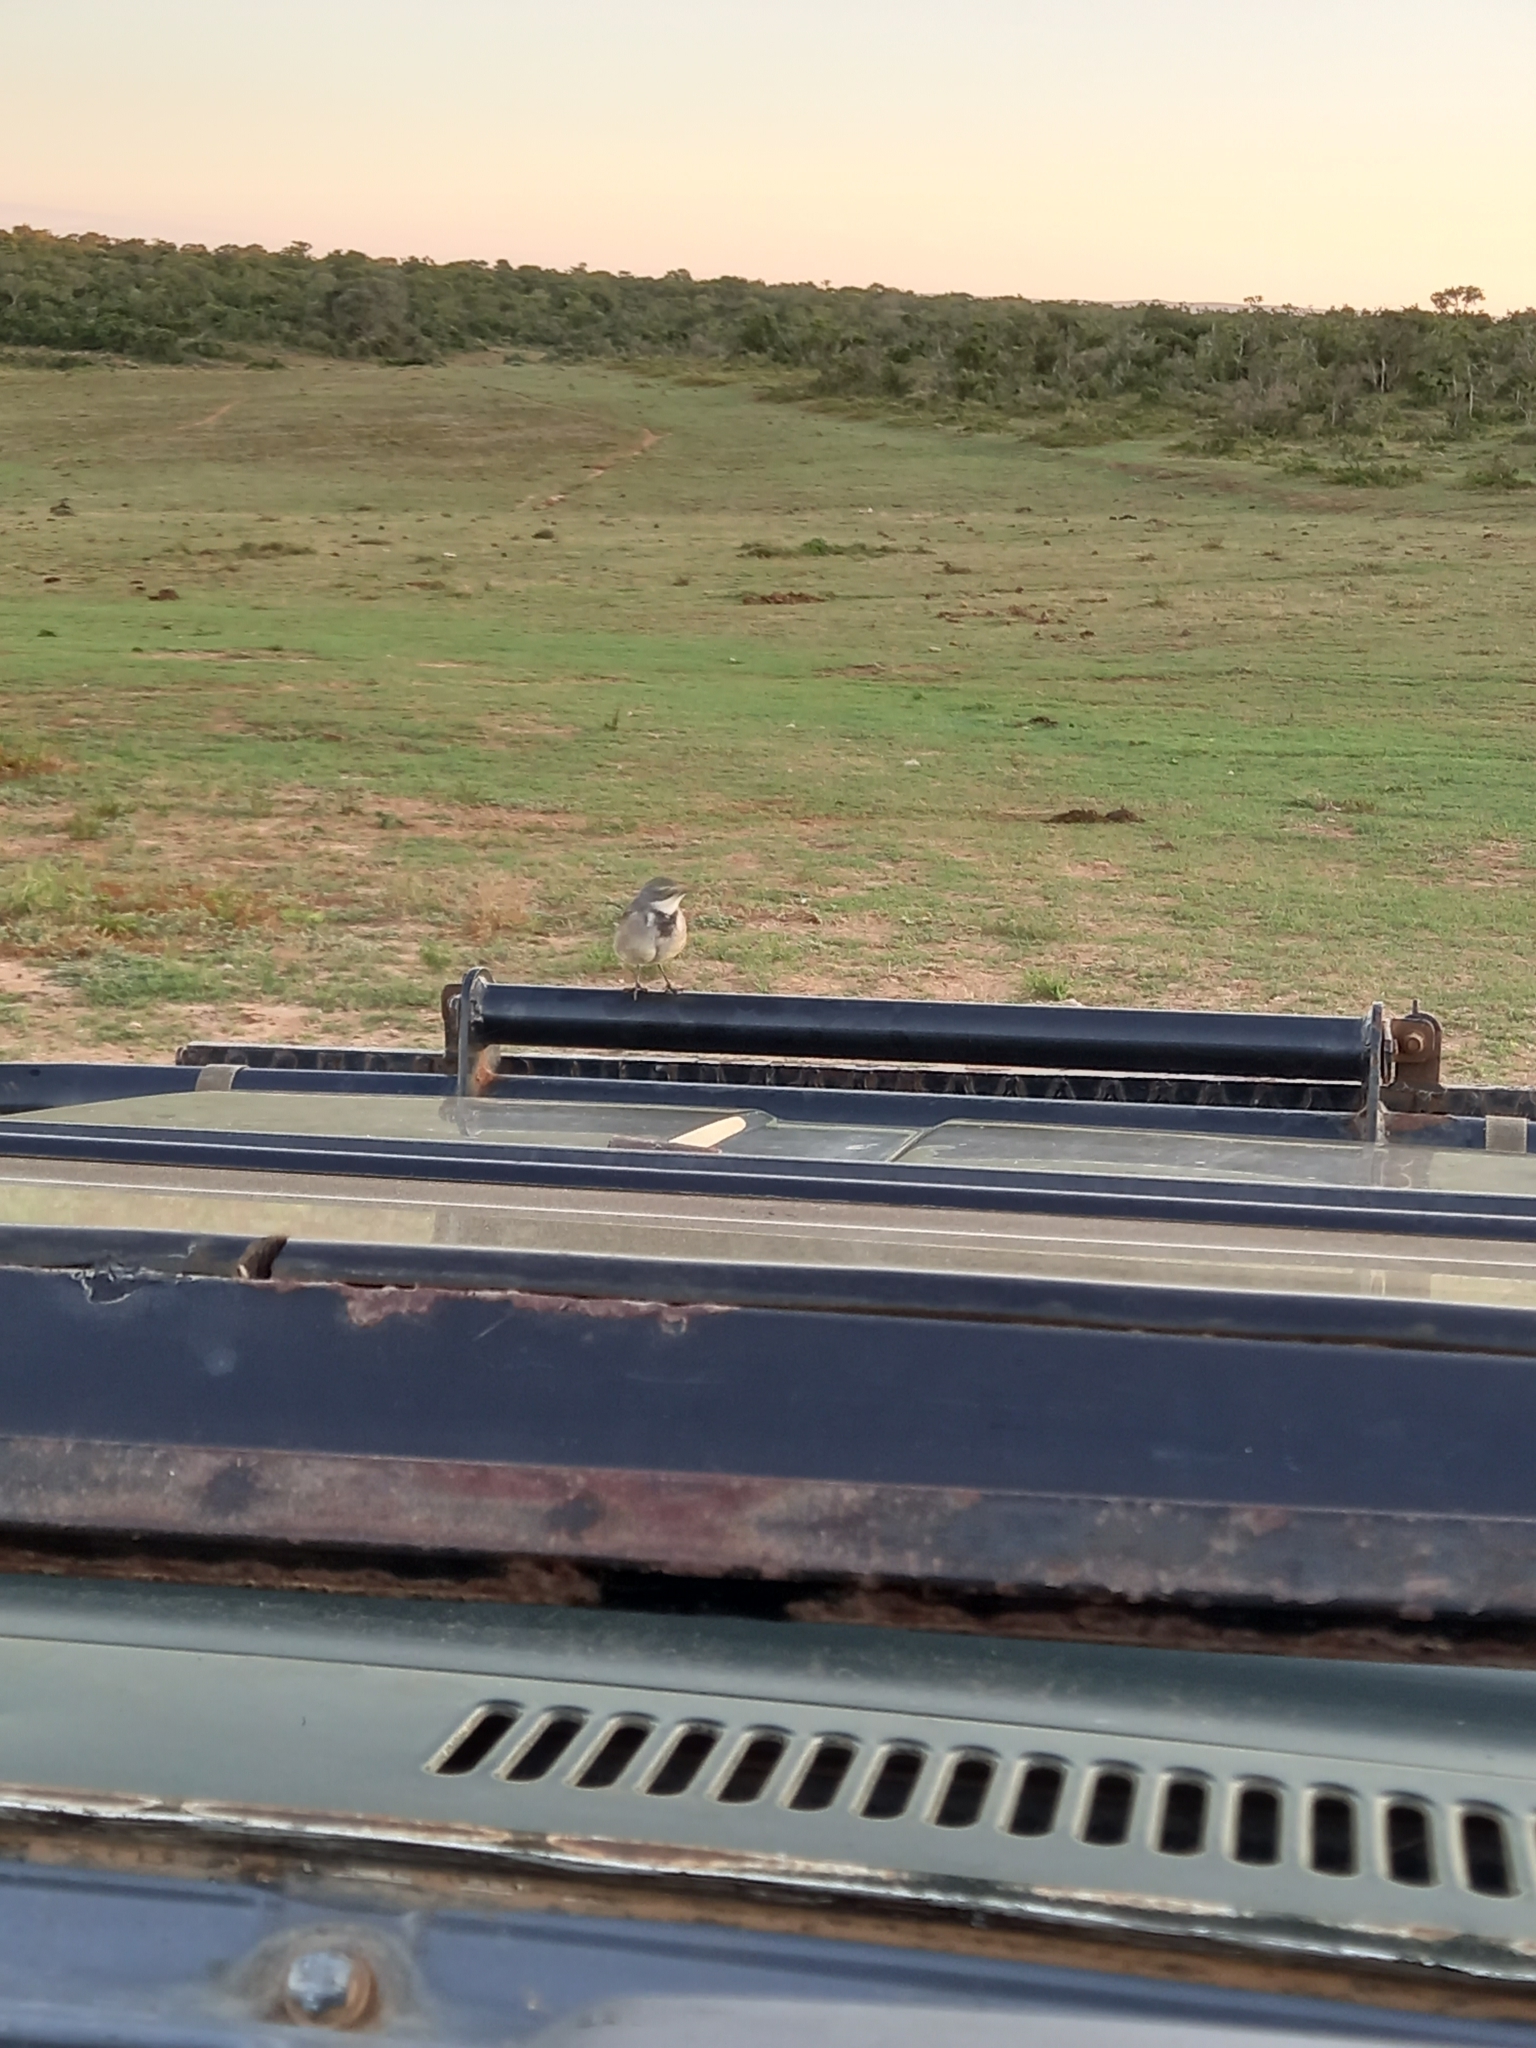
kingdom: Animalia
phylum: Chordata
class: Aves
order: Passeriformes
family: Motacillidae
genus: Motacilla
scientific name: Motacilla capensis
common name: Cape wagtail
